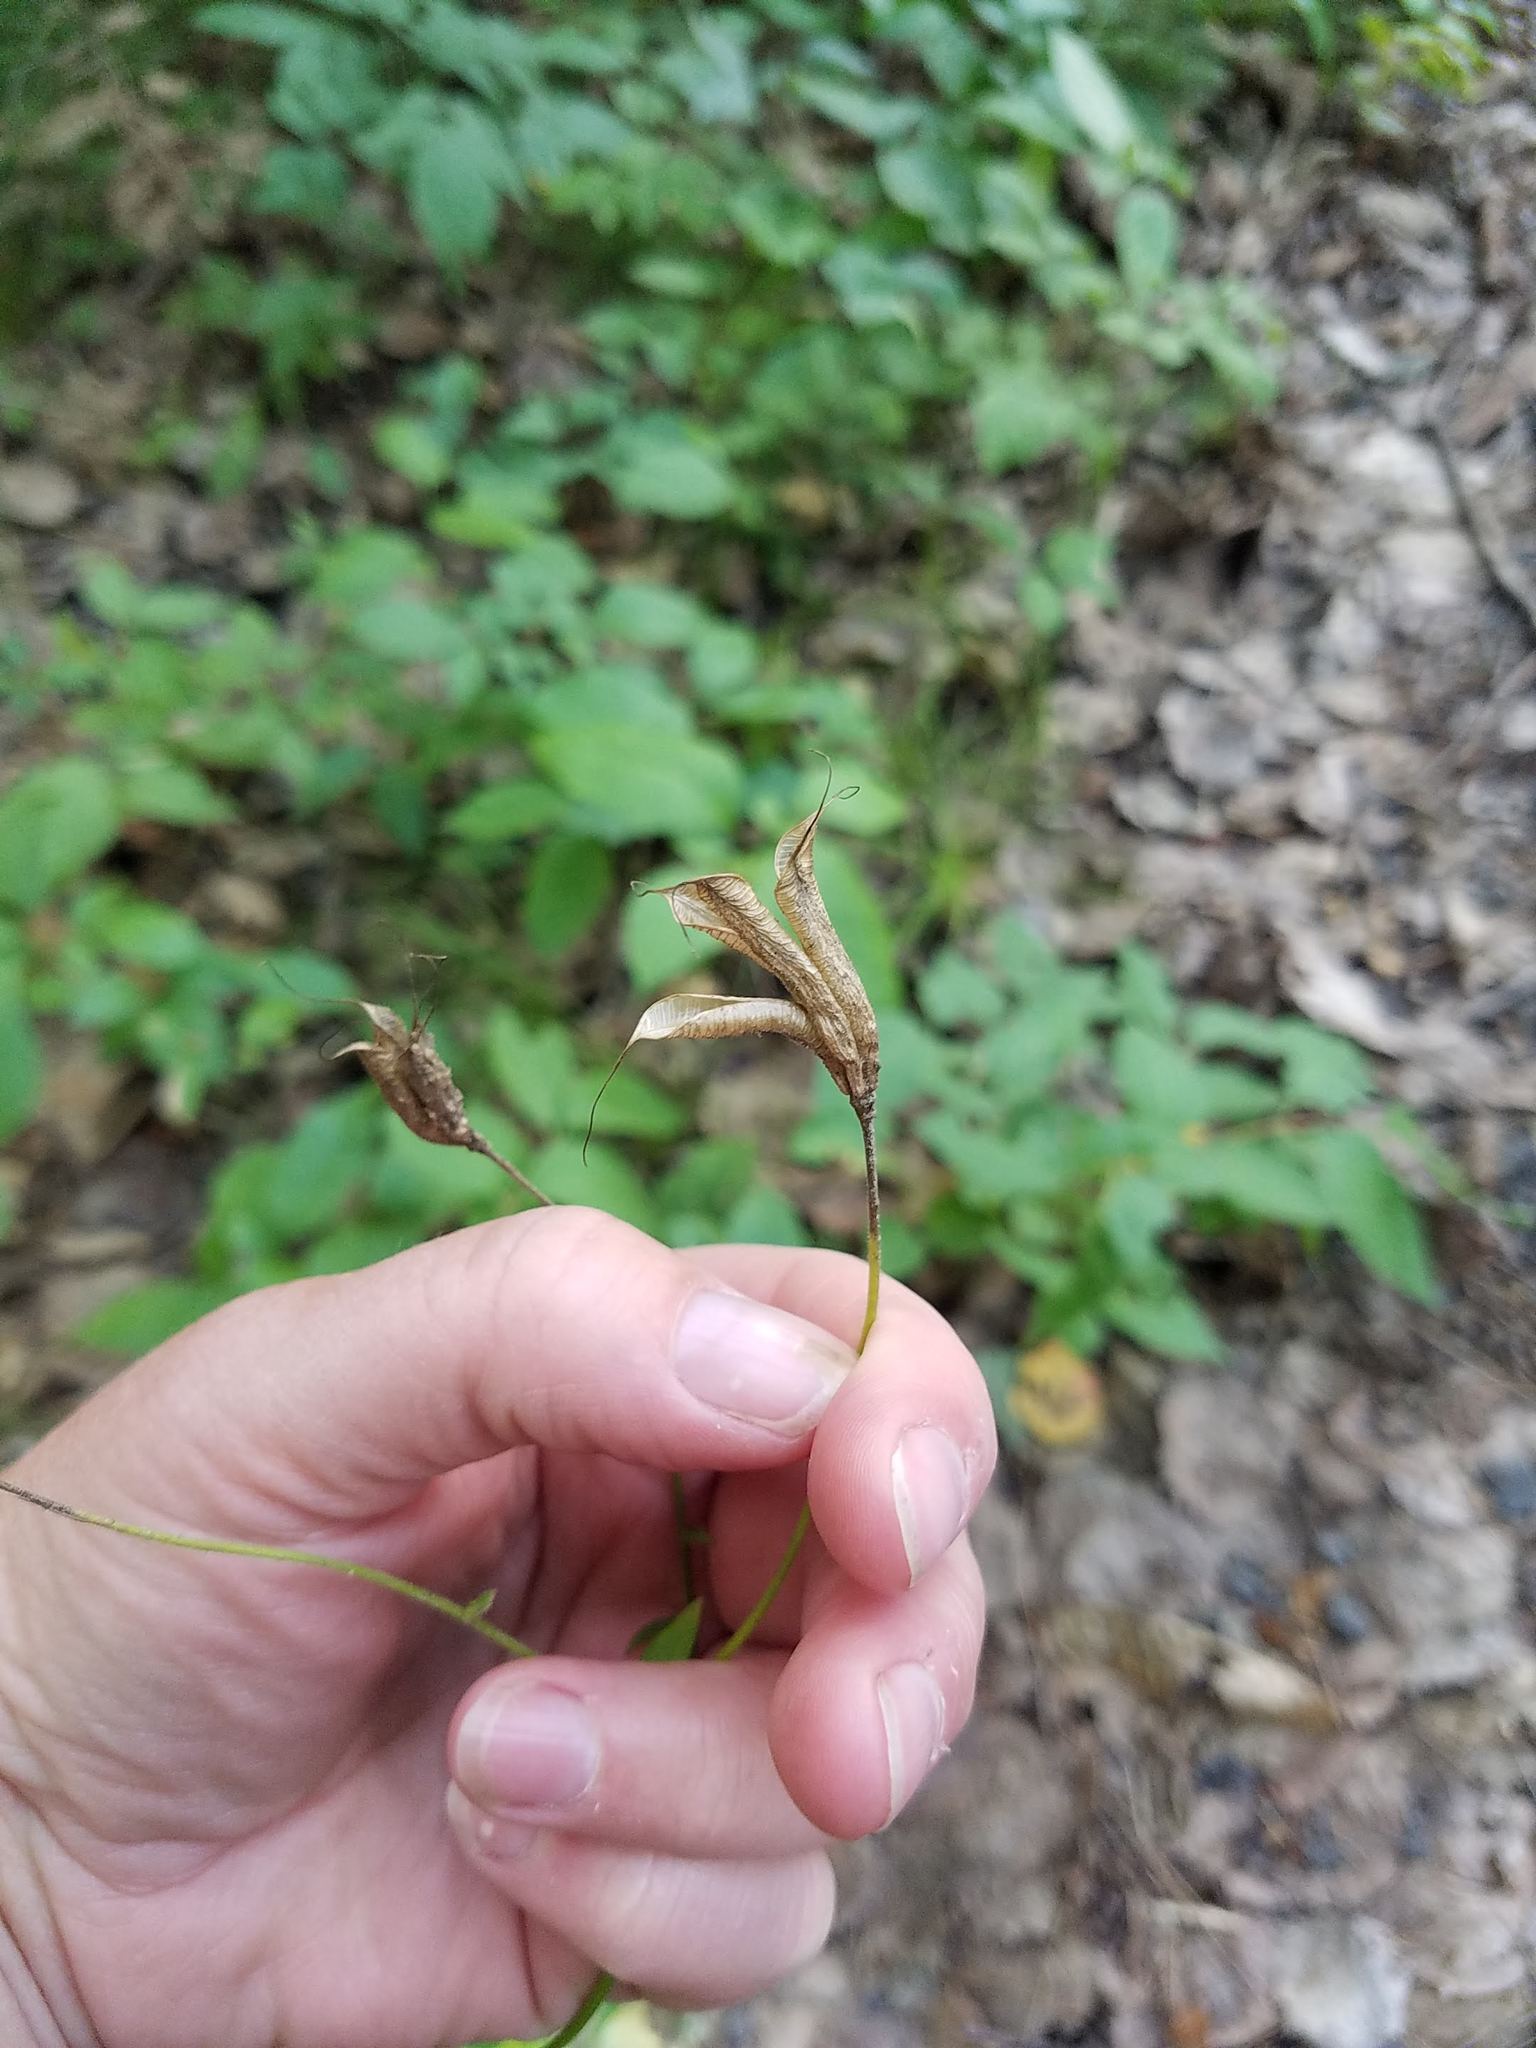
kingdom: Plantae
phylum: Tracheophyta
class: Magnoliopsida
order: Ranunculales
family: Ranunculaceae
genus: Aquilegia
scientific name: Aquilegia canadensis
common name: American columbine
